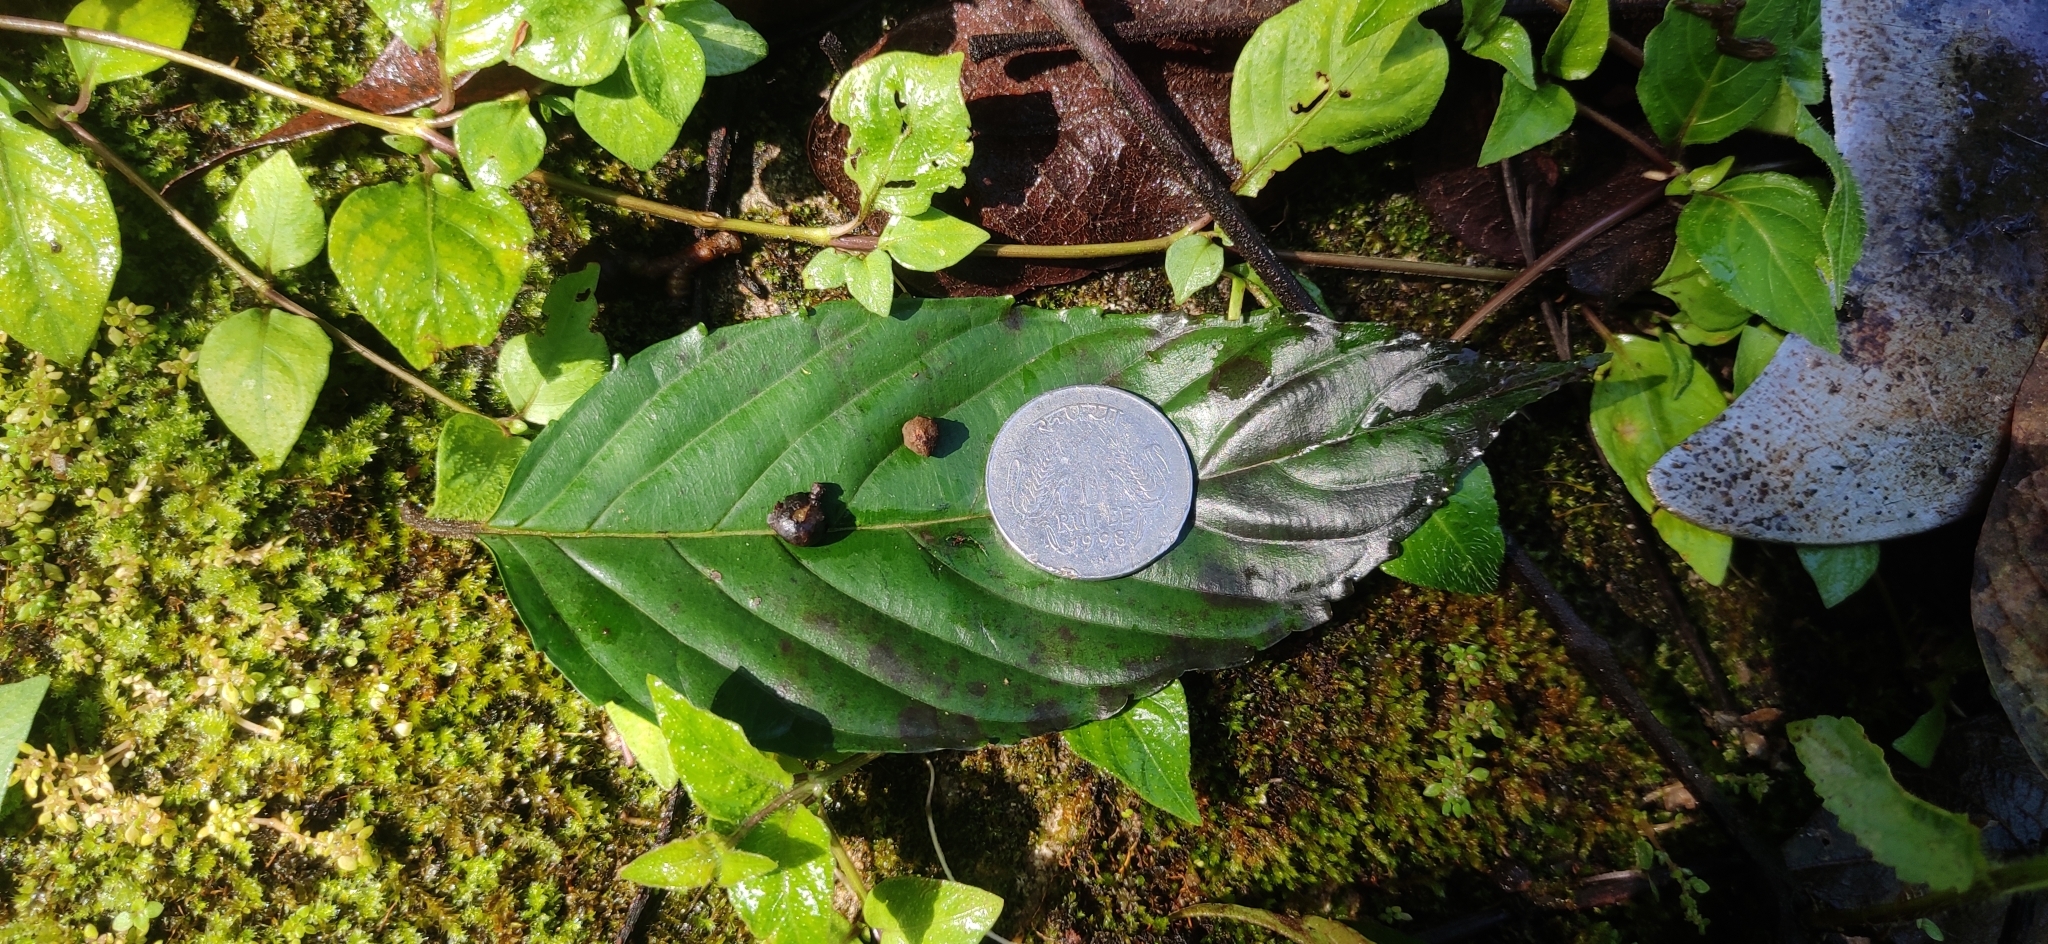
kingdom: Plantae
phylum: Tracheophyta
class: Magnoliopsida
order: Proteales
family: Sabiaceae
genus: Meliosma
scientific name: Meliosma pinnata
